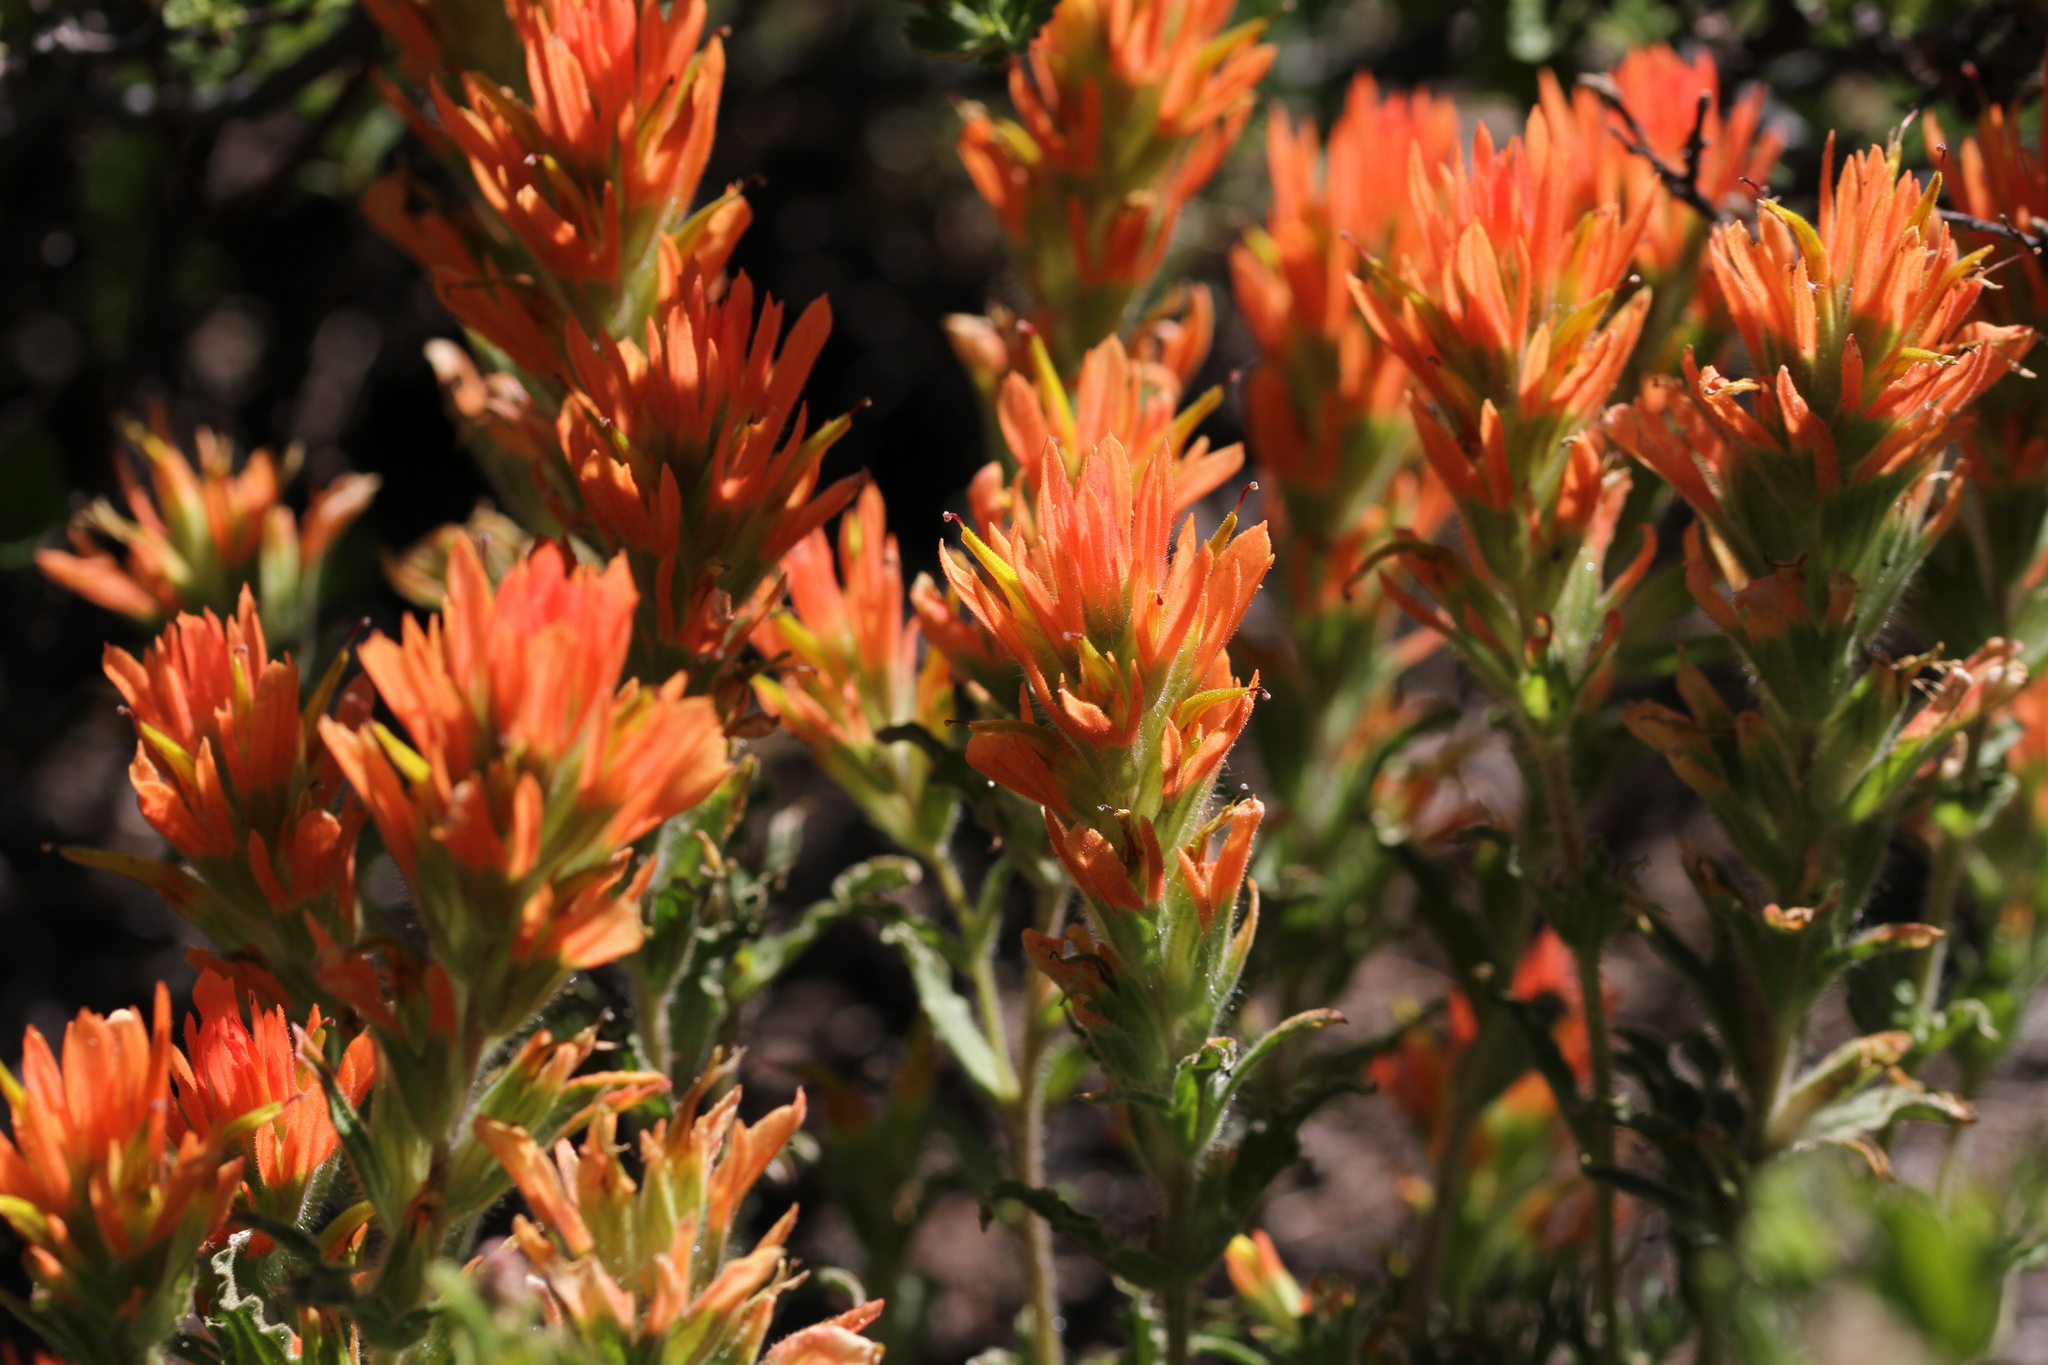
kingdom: Plantae
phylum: Tracheophyta
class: Magnoliopsida
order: Lamiales
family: Orobanchaceae
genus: Castilleja
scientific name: Castilleja applegatei
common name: Wavy-leaf paintbrush
